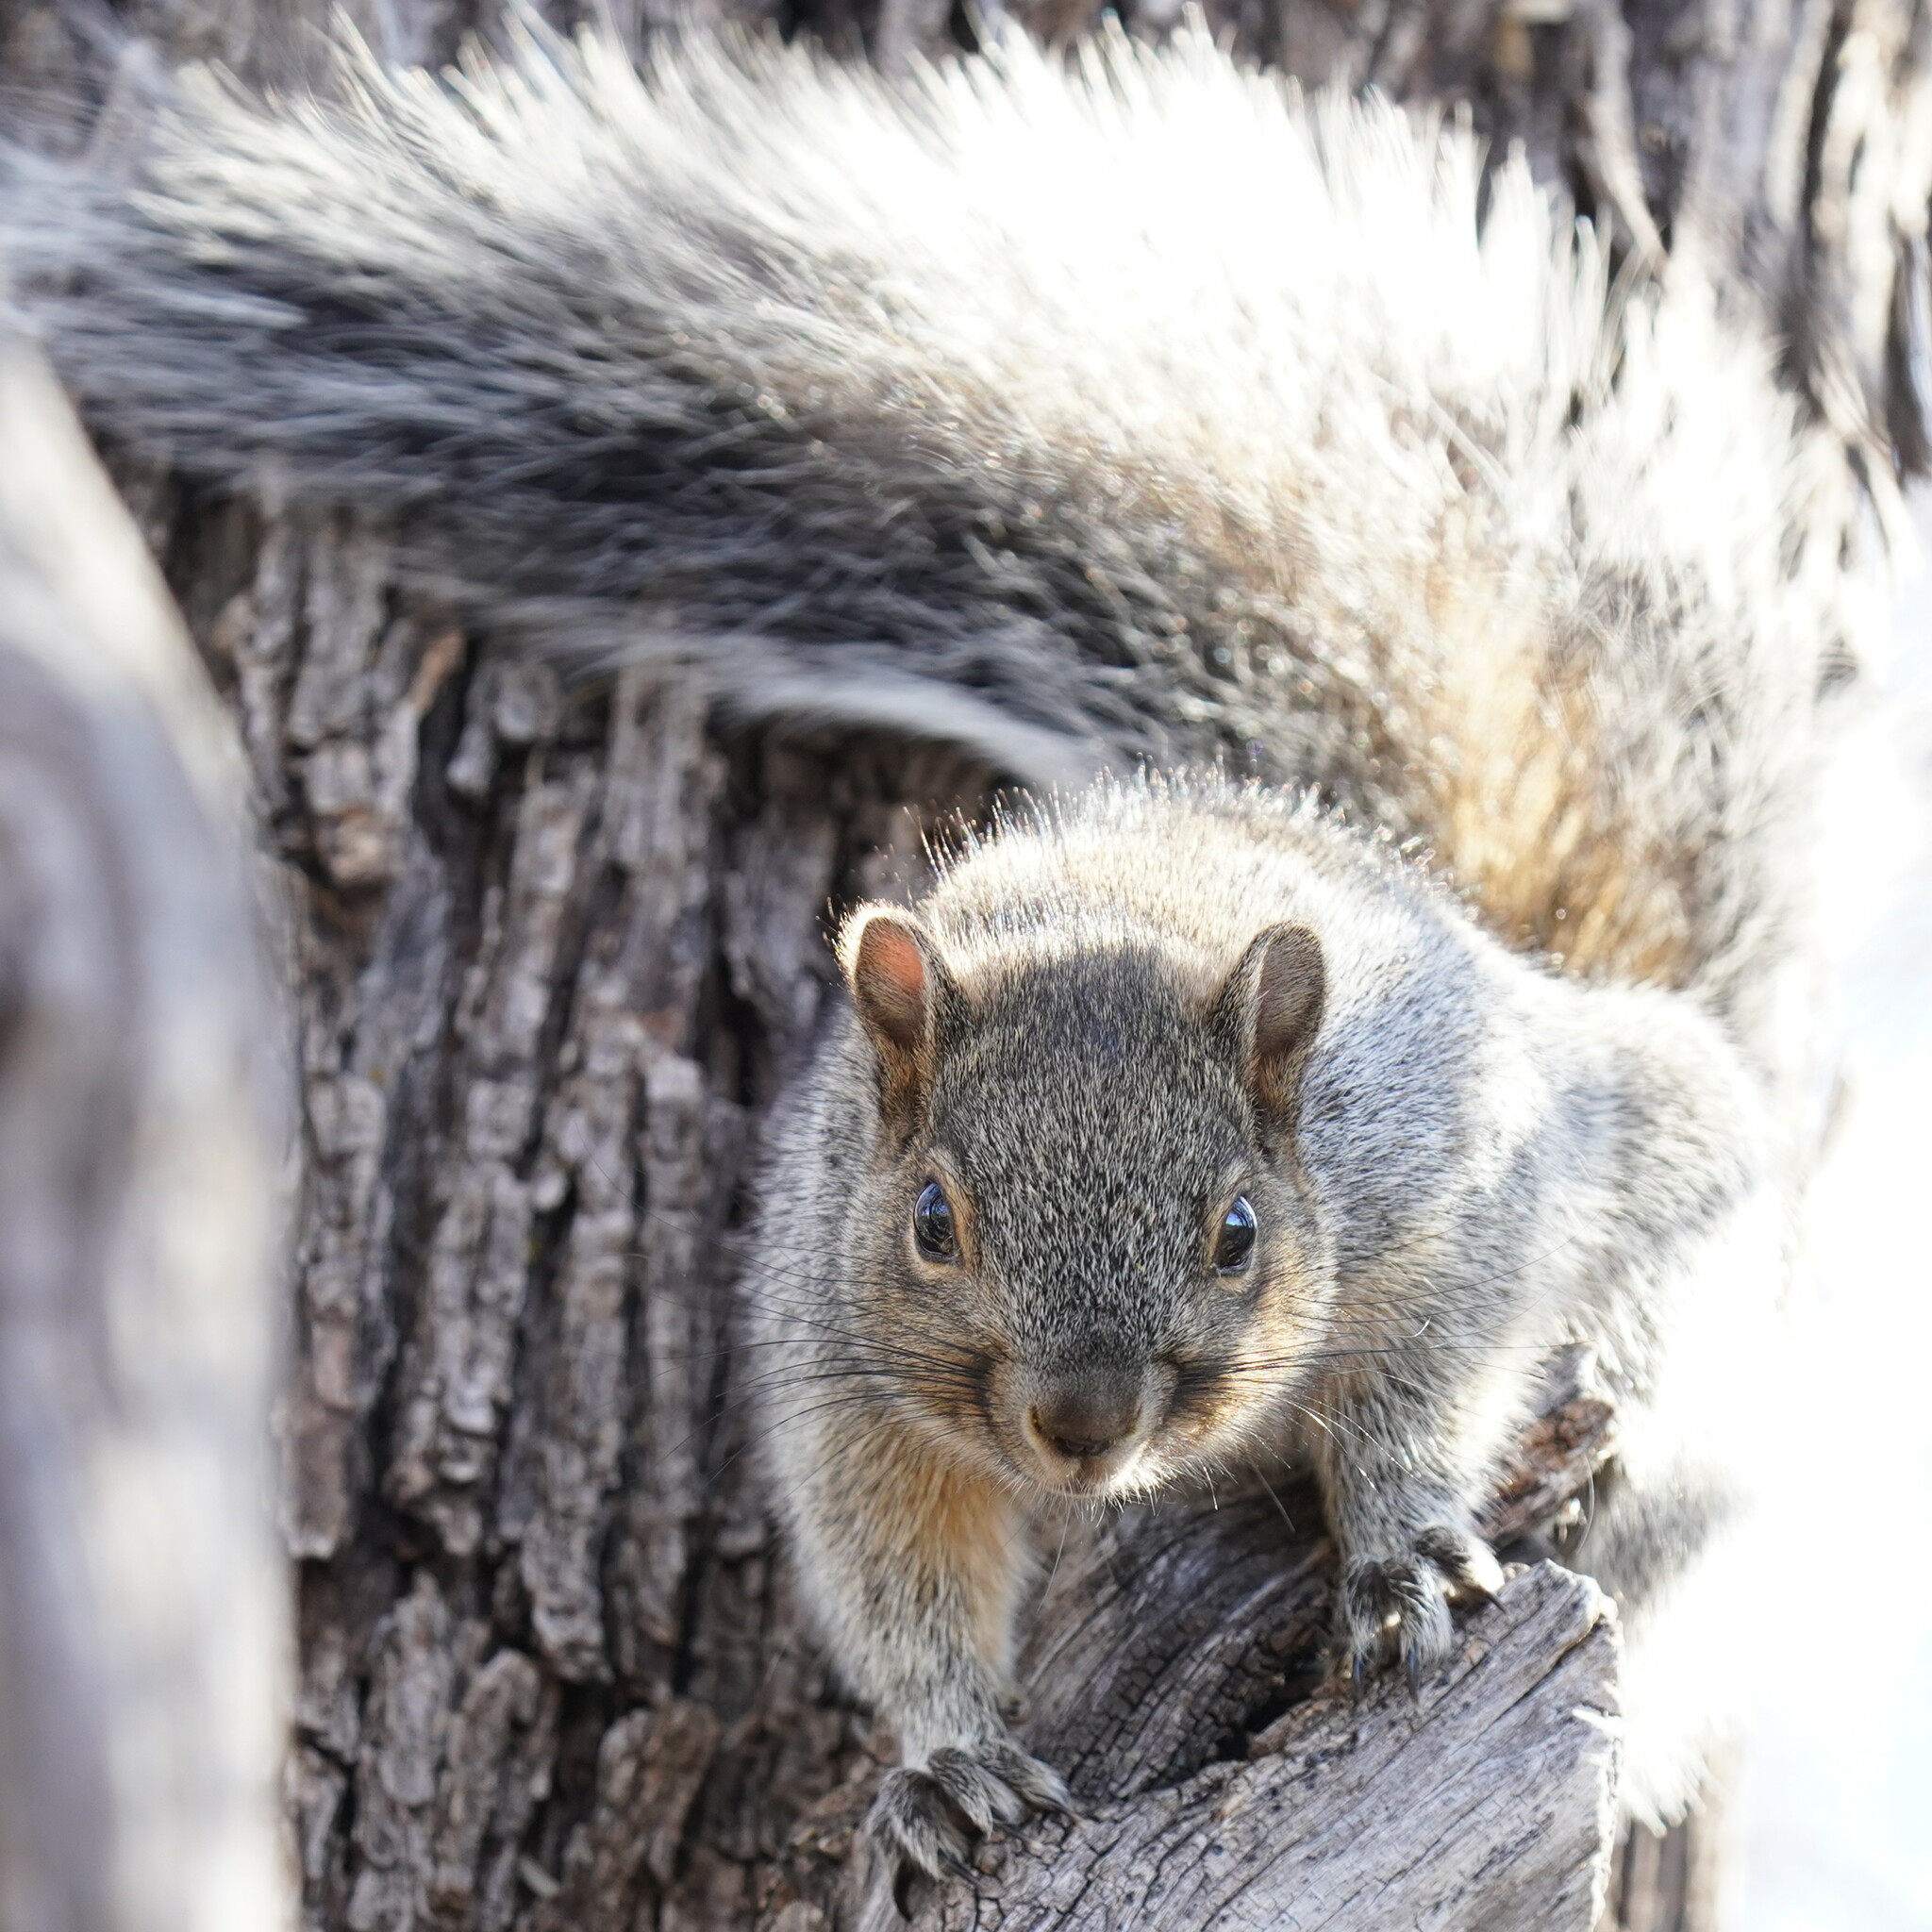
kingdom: Animalia
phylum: Chordata
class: Mammalia
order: Rodentia
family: Sciuridae
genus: Sciurus
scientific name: Sciurus arizonensis
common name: Arizona gray squirrel
